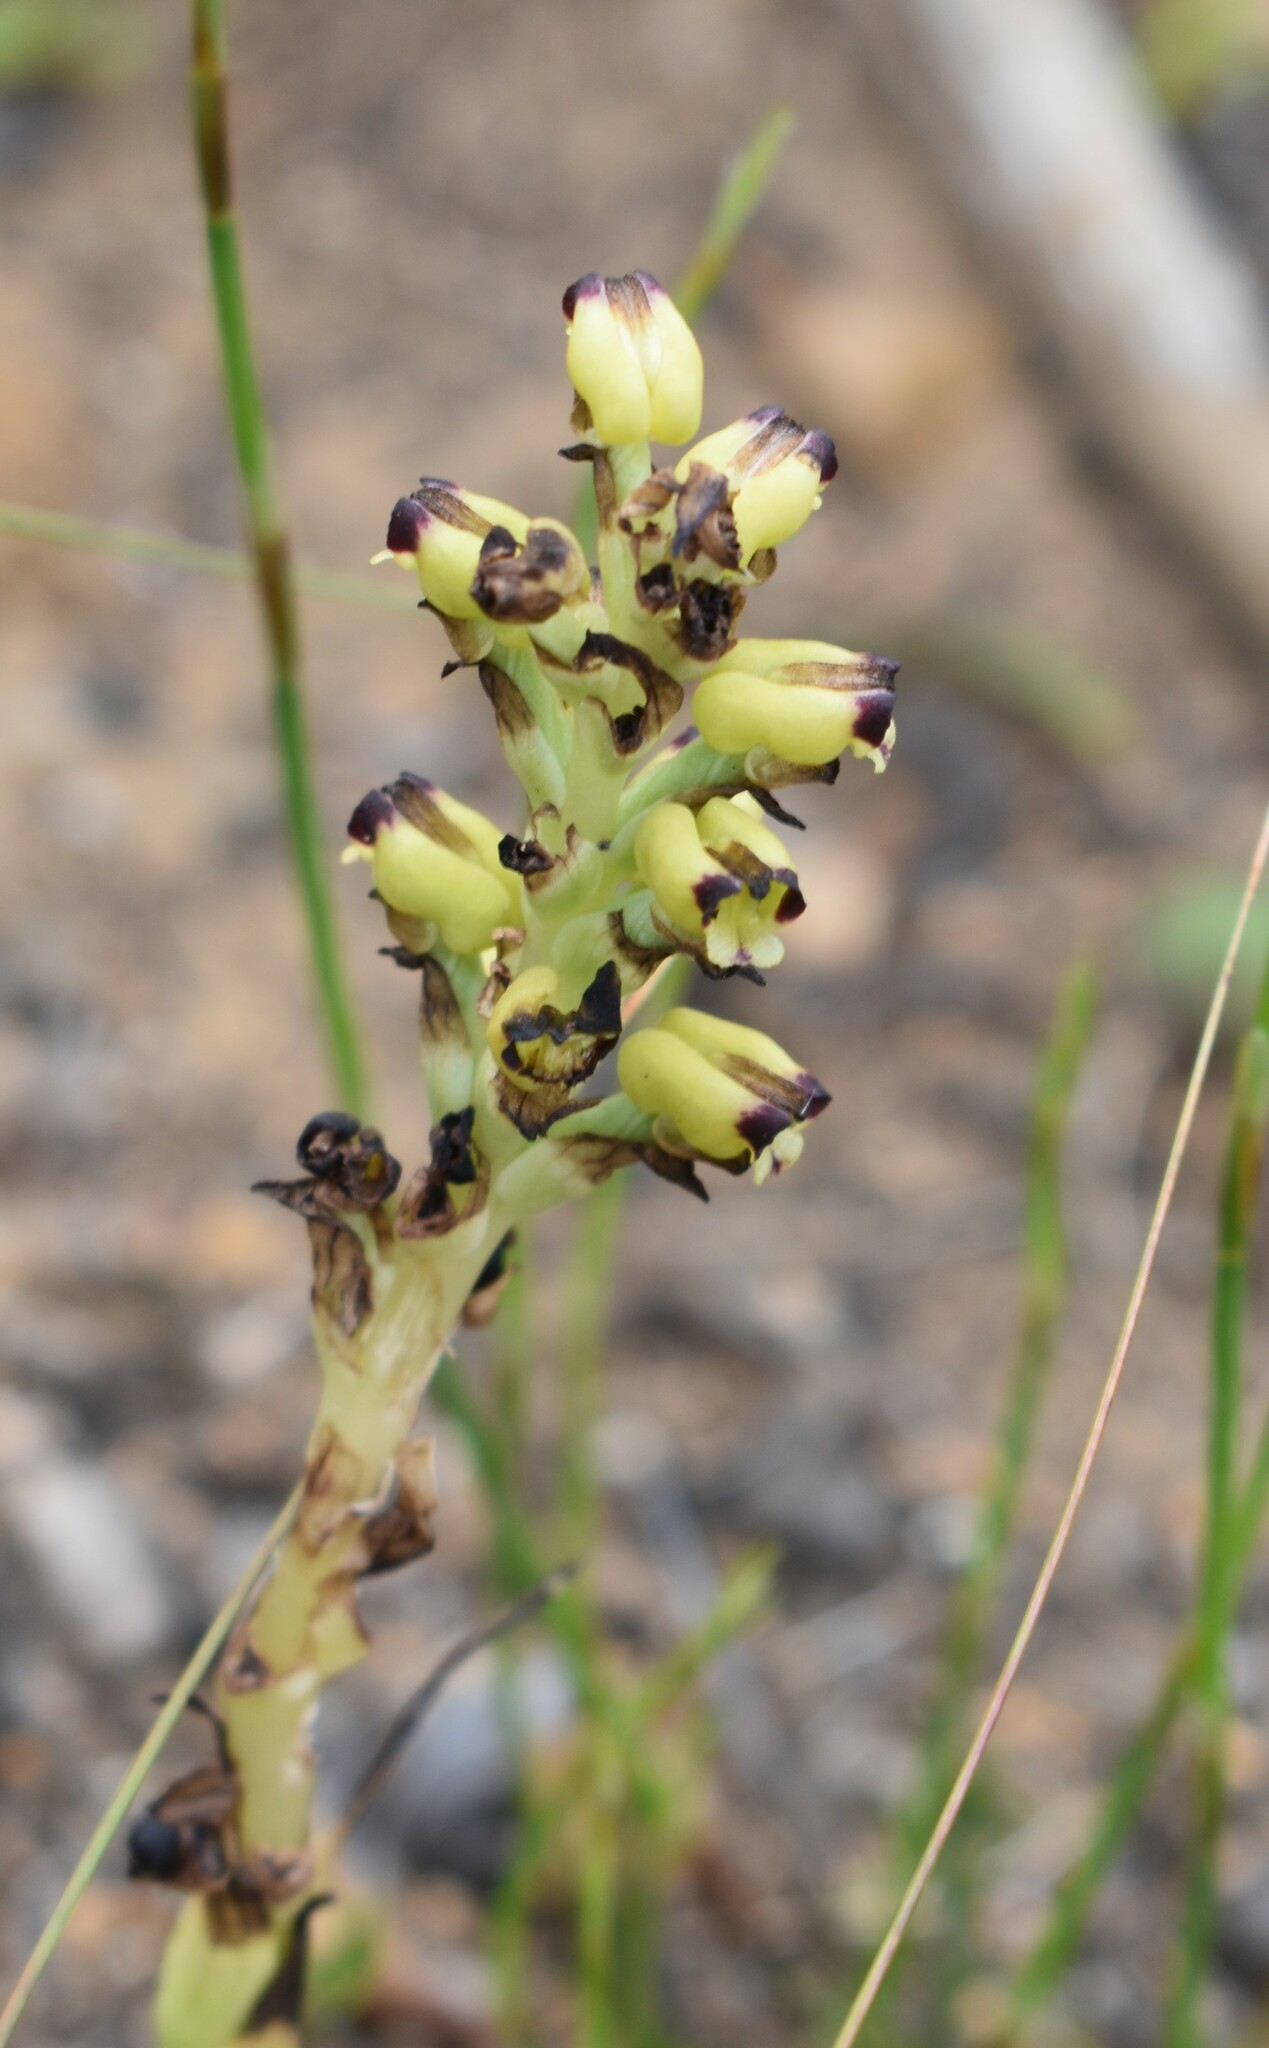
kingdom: Plantae
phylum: Tracheophyta
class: Liliopsida
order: Asparagales
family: Orchidaceae
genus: Corycium
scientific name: Corycium orobanchoides
